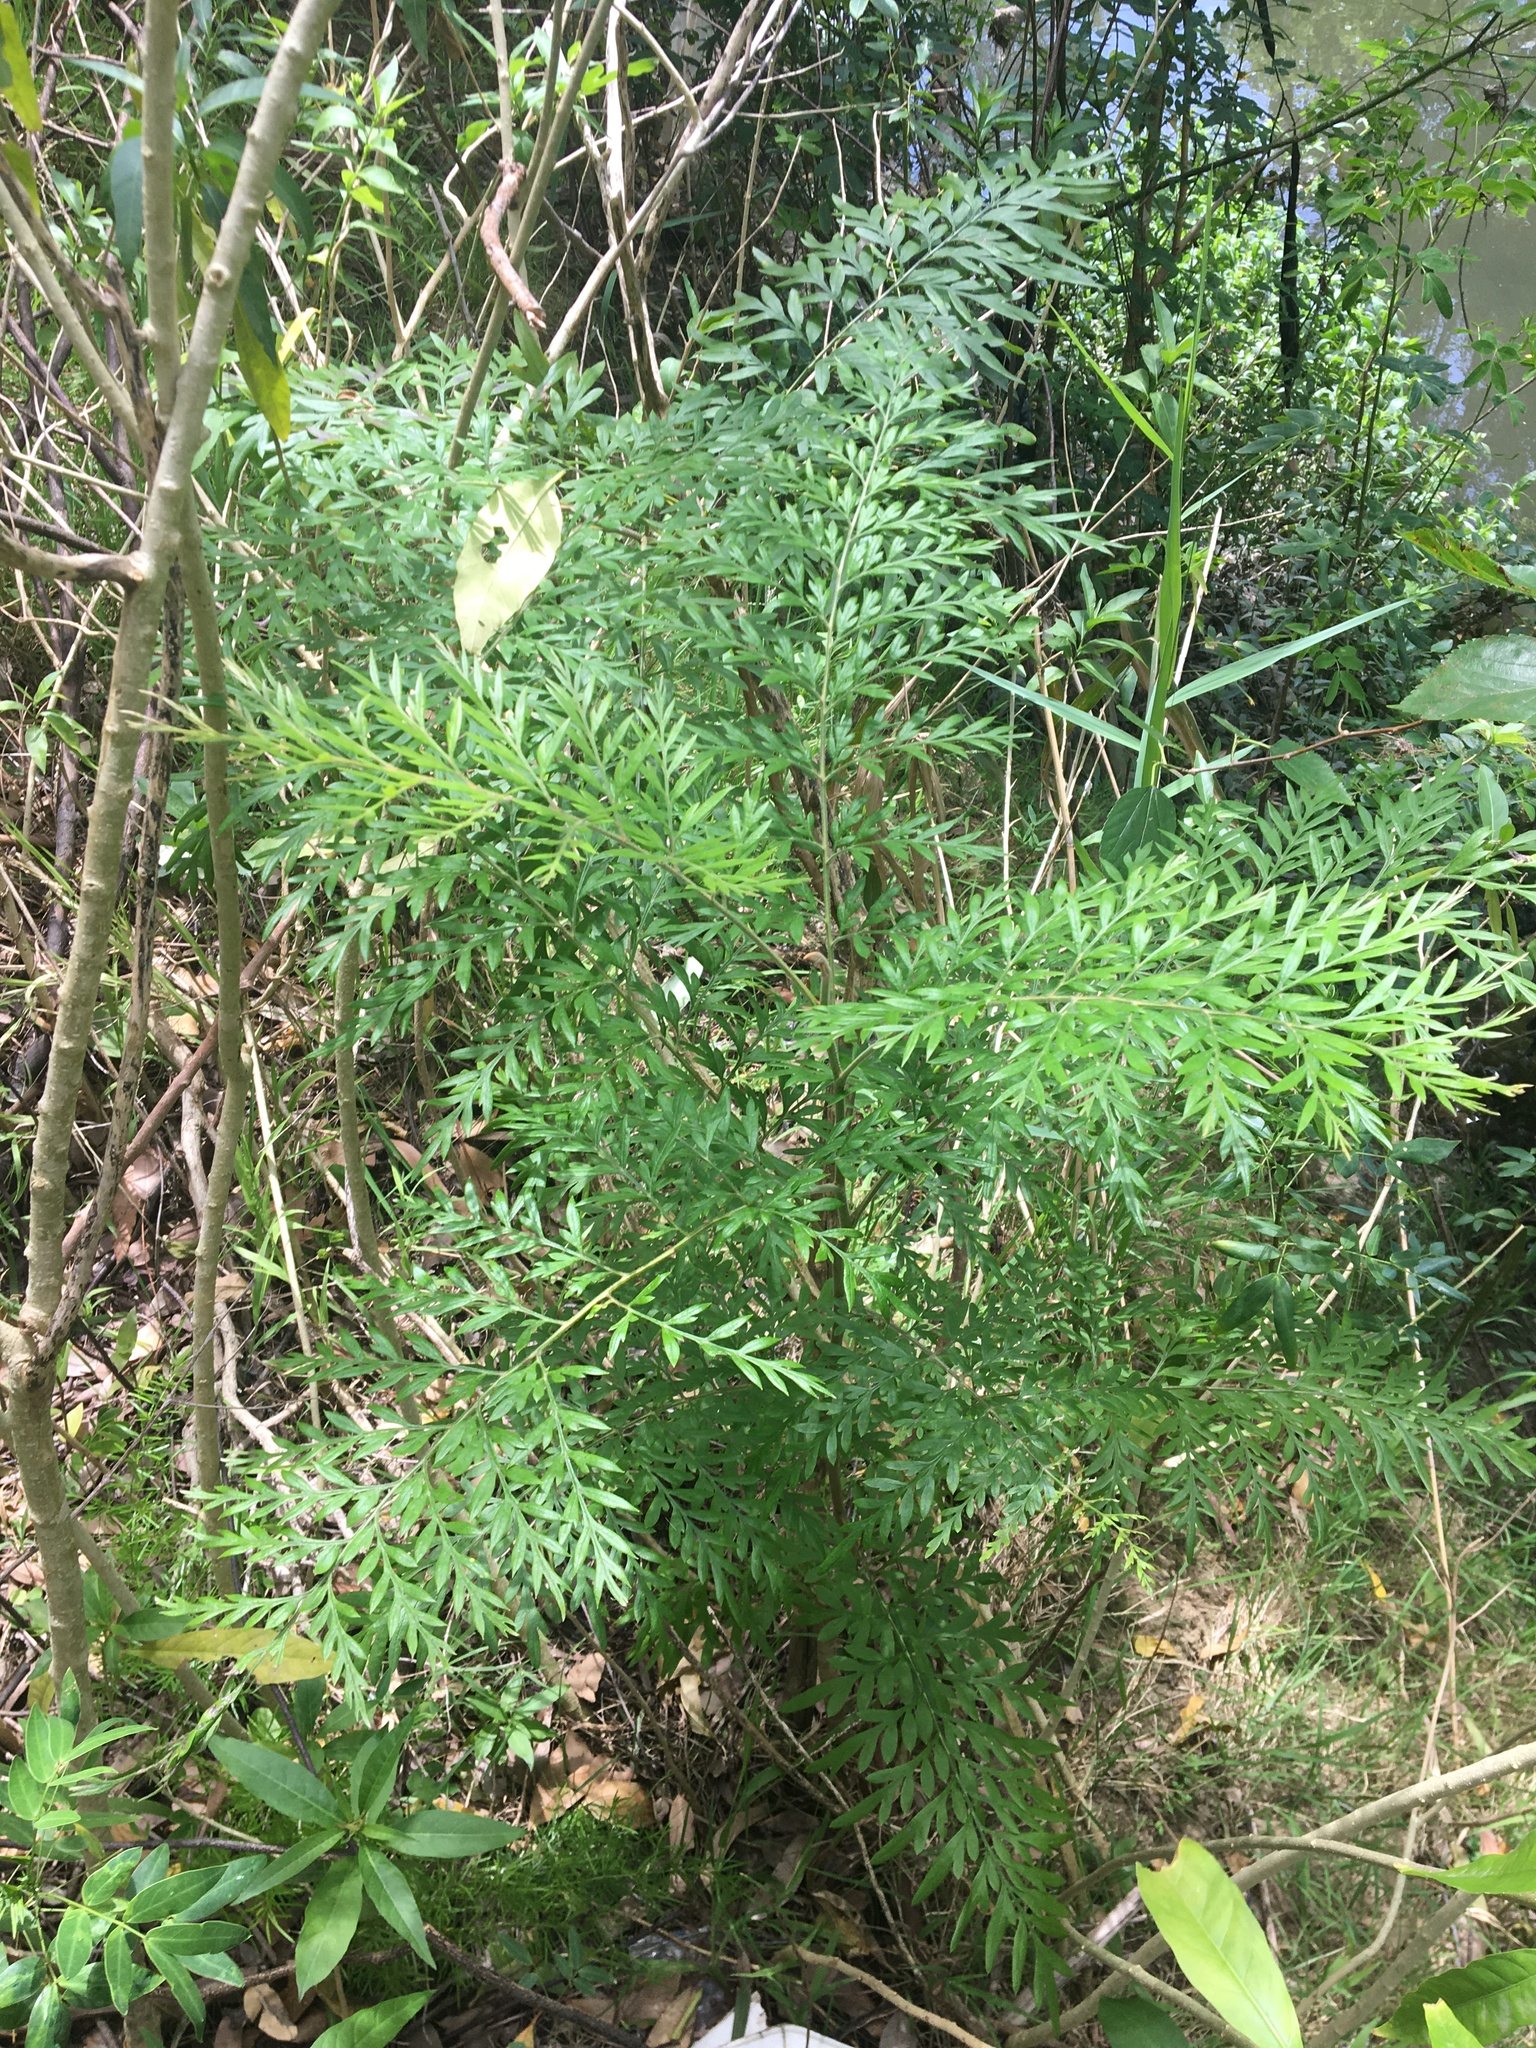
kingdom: Plantae
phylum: Tracheophyta
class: Magnoliopsida
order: Proteales
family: Proteaceae
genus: Grevillea
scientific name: Grevillea robusta
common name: Silkoak
